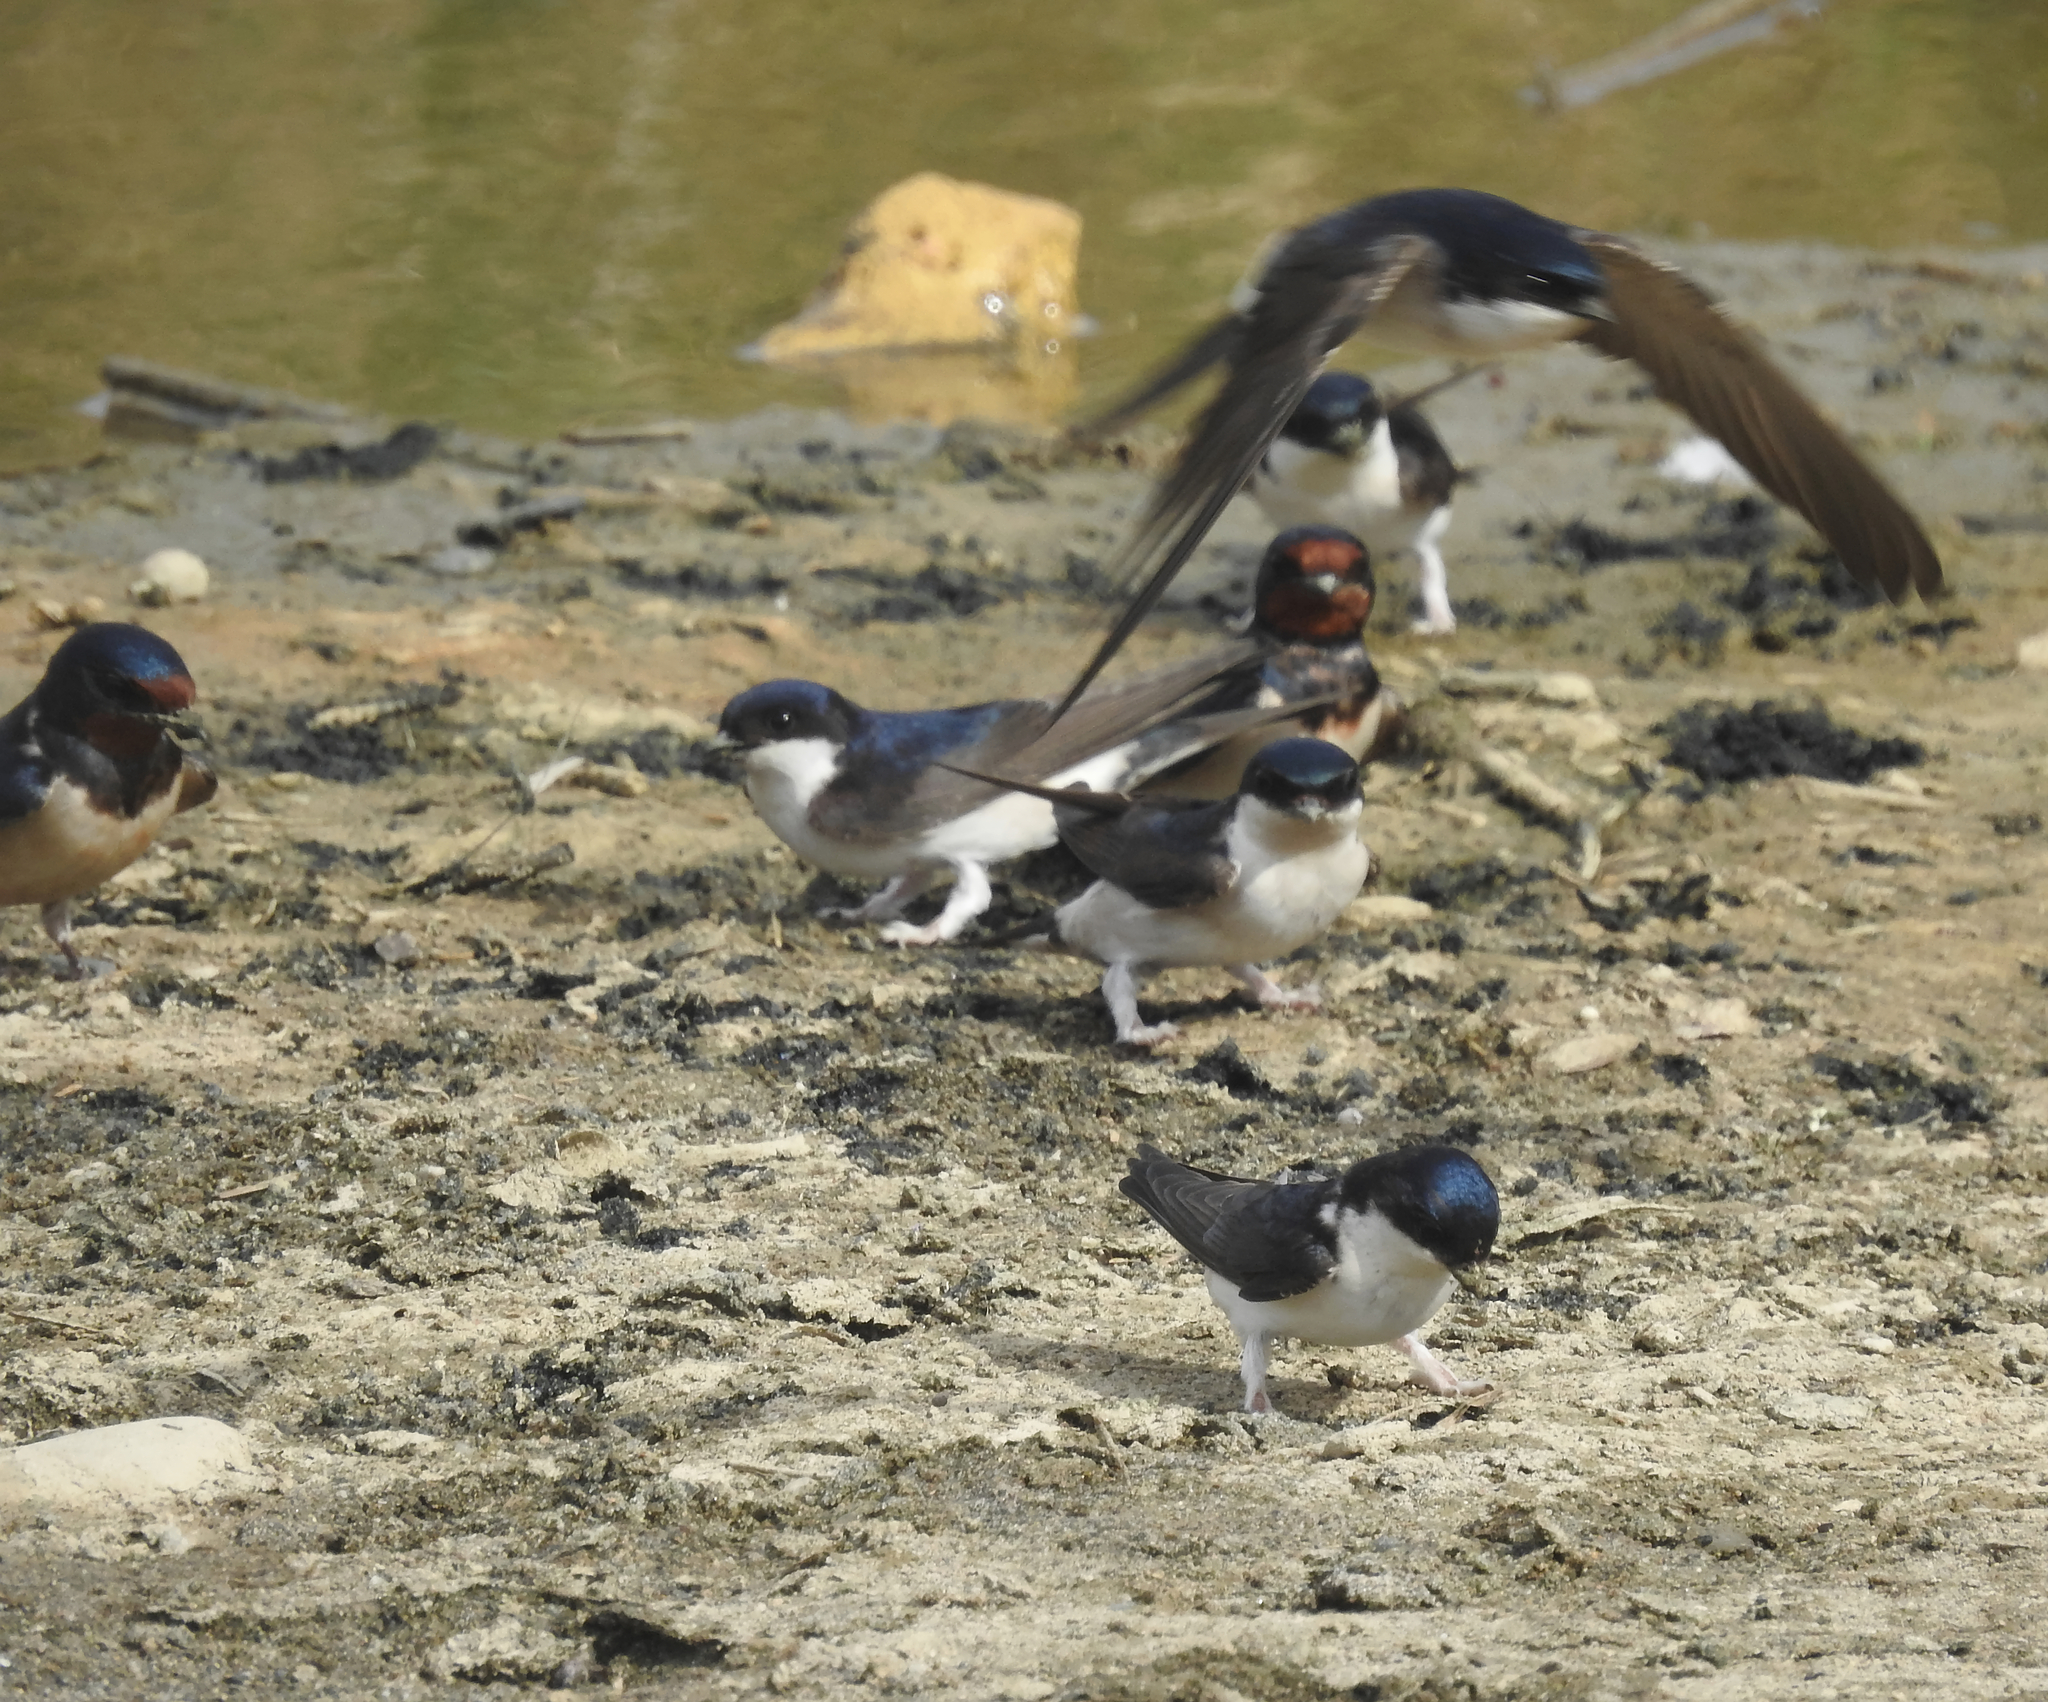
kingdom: Animalia
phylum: Chordata
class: Aves
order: Passeriformes
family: Hirundinidae
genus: Hirundo
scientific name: Hirundo rustica
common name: Barn swallow
